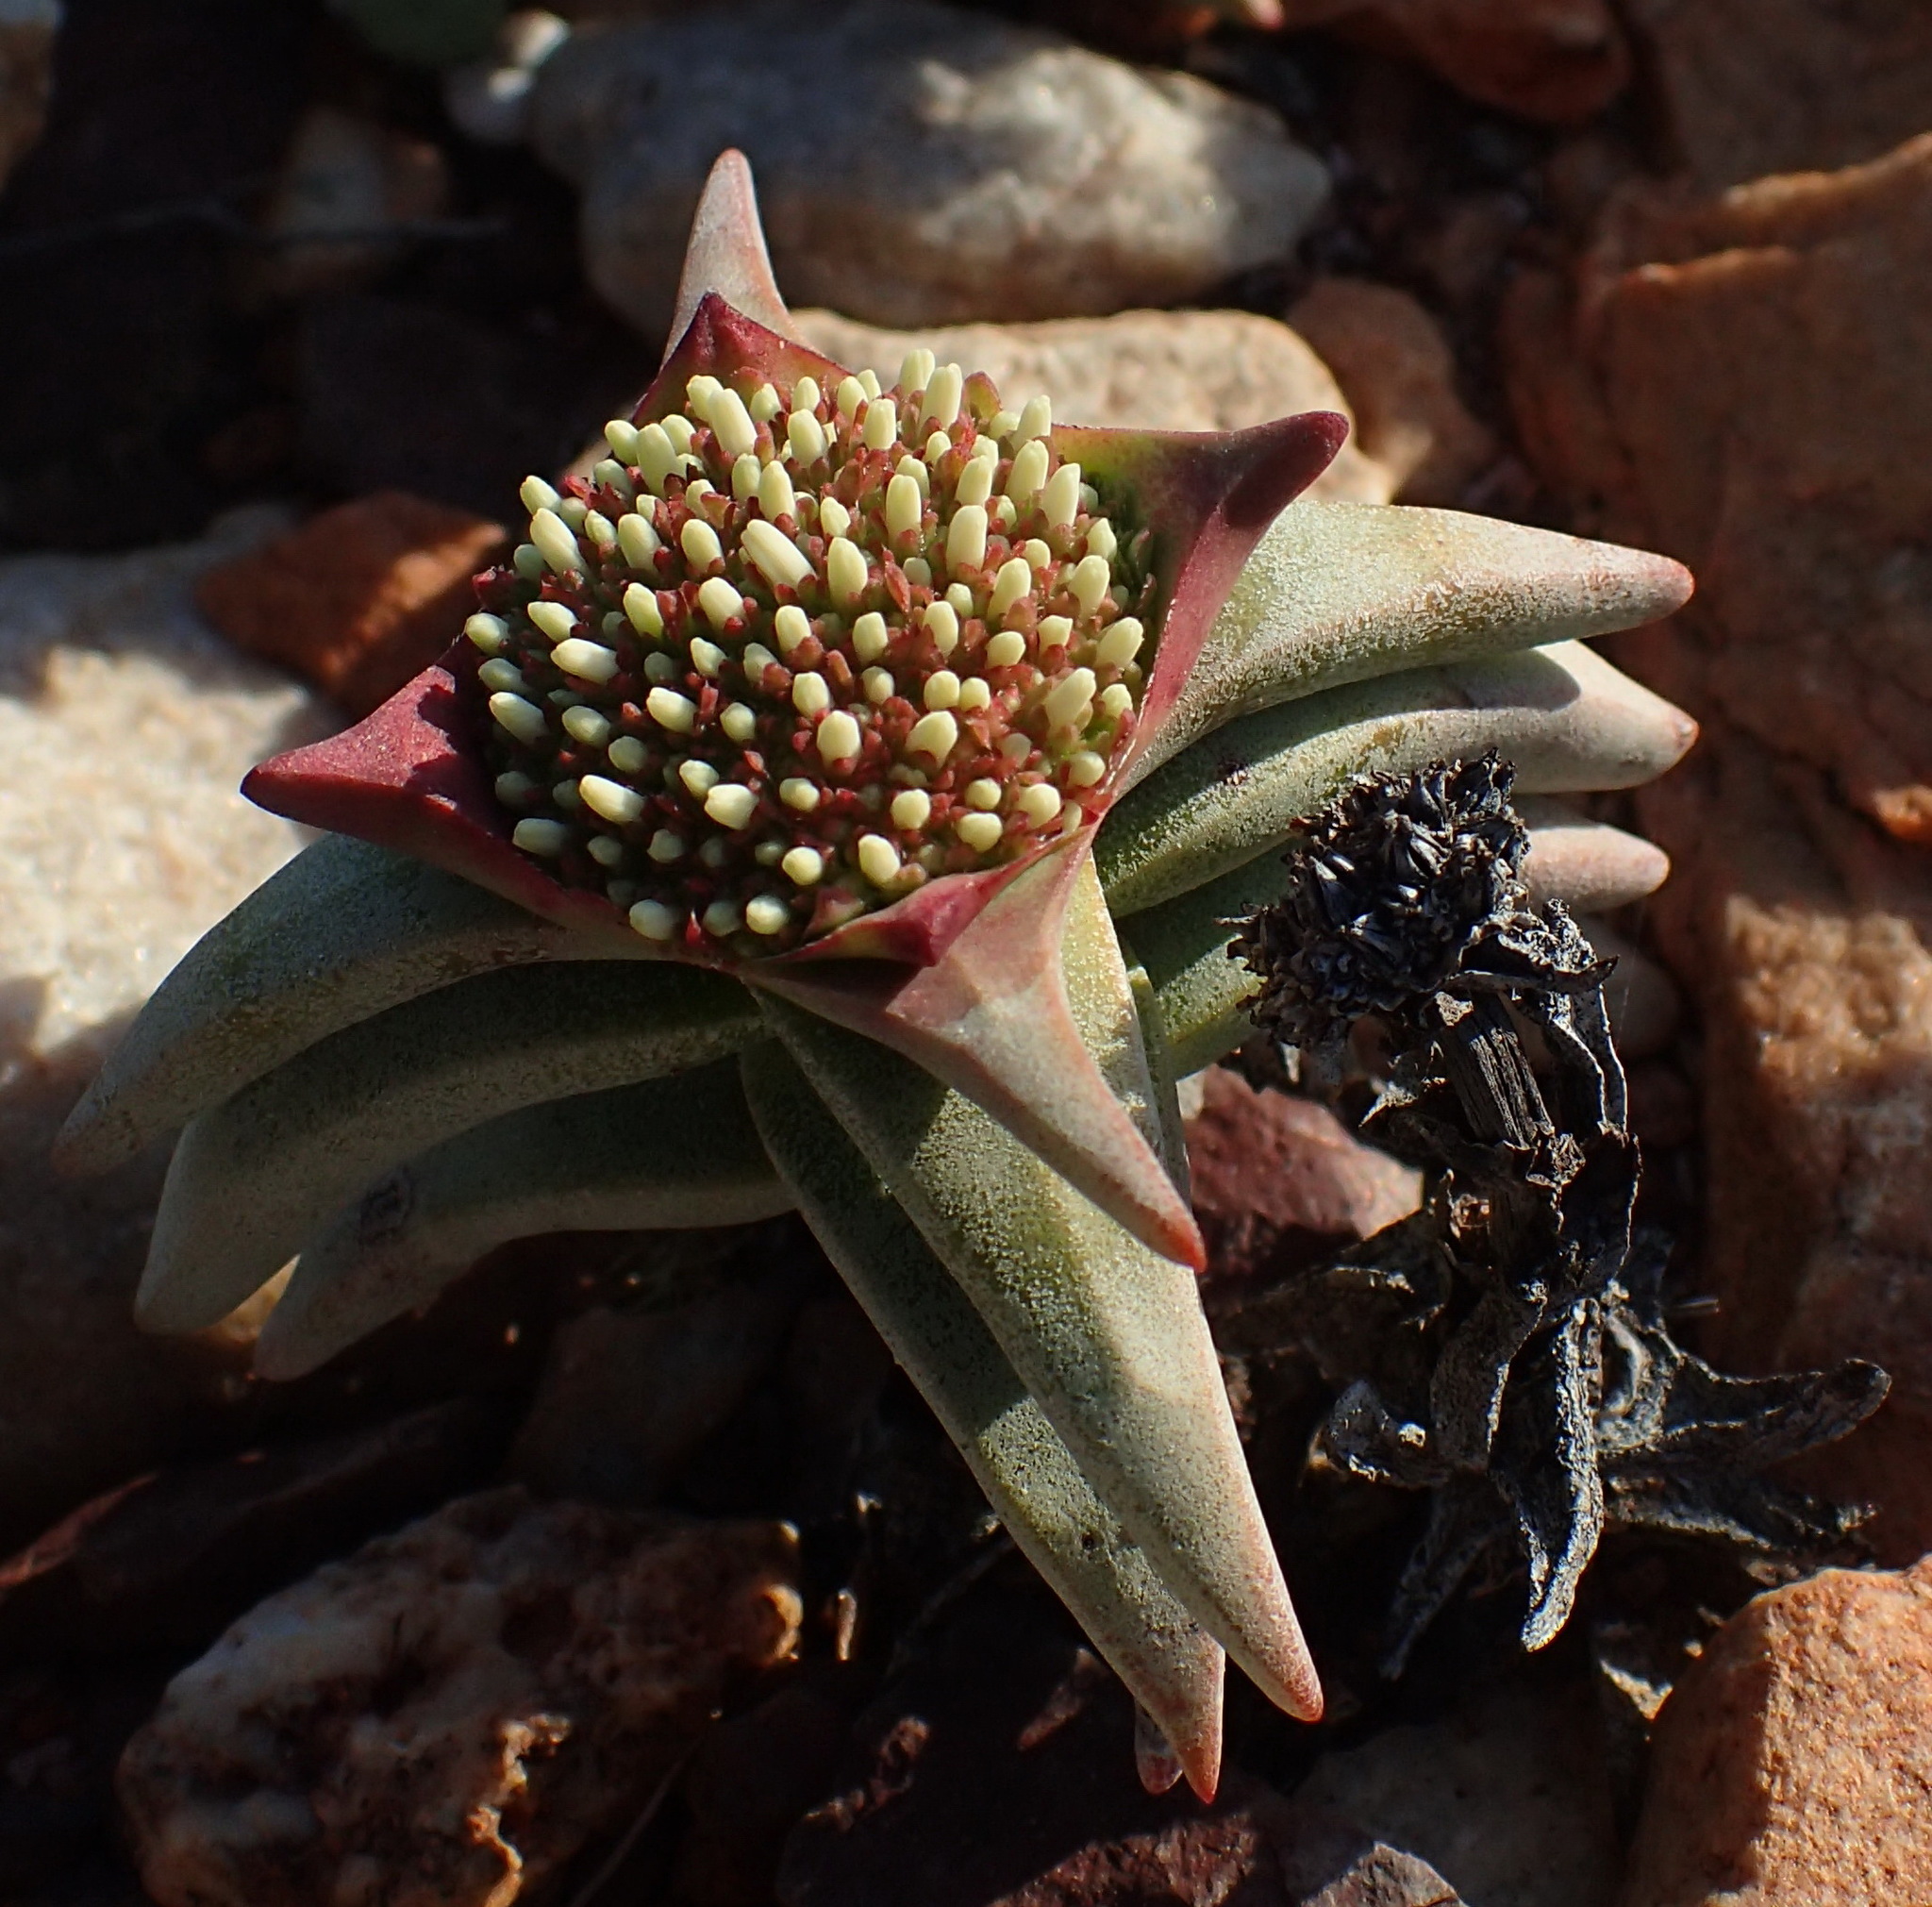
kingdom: Plantae
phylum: Tracheophyta
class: Magnoliopsida
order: Saxifragales
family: Crassulaceae
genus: Crassula
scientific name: Crassula congesta
